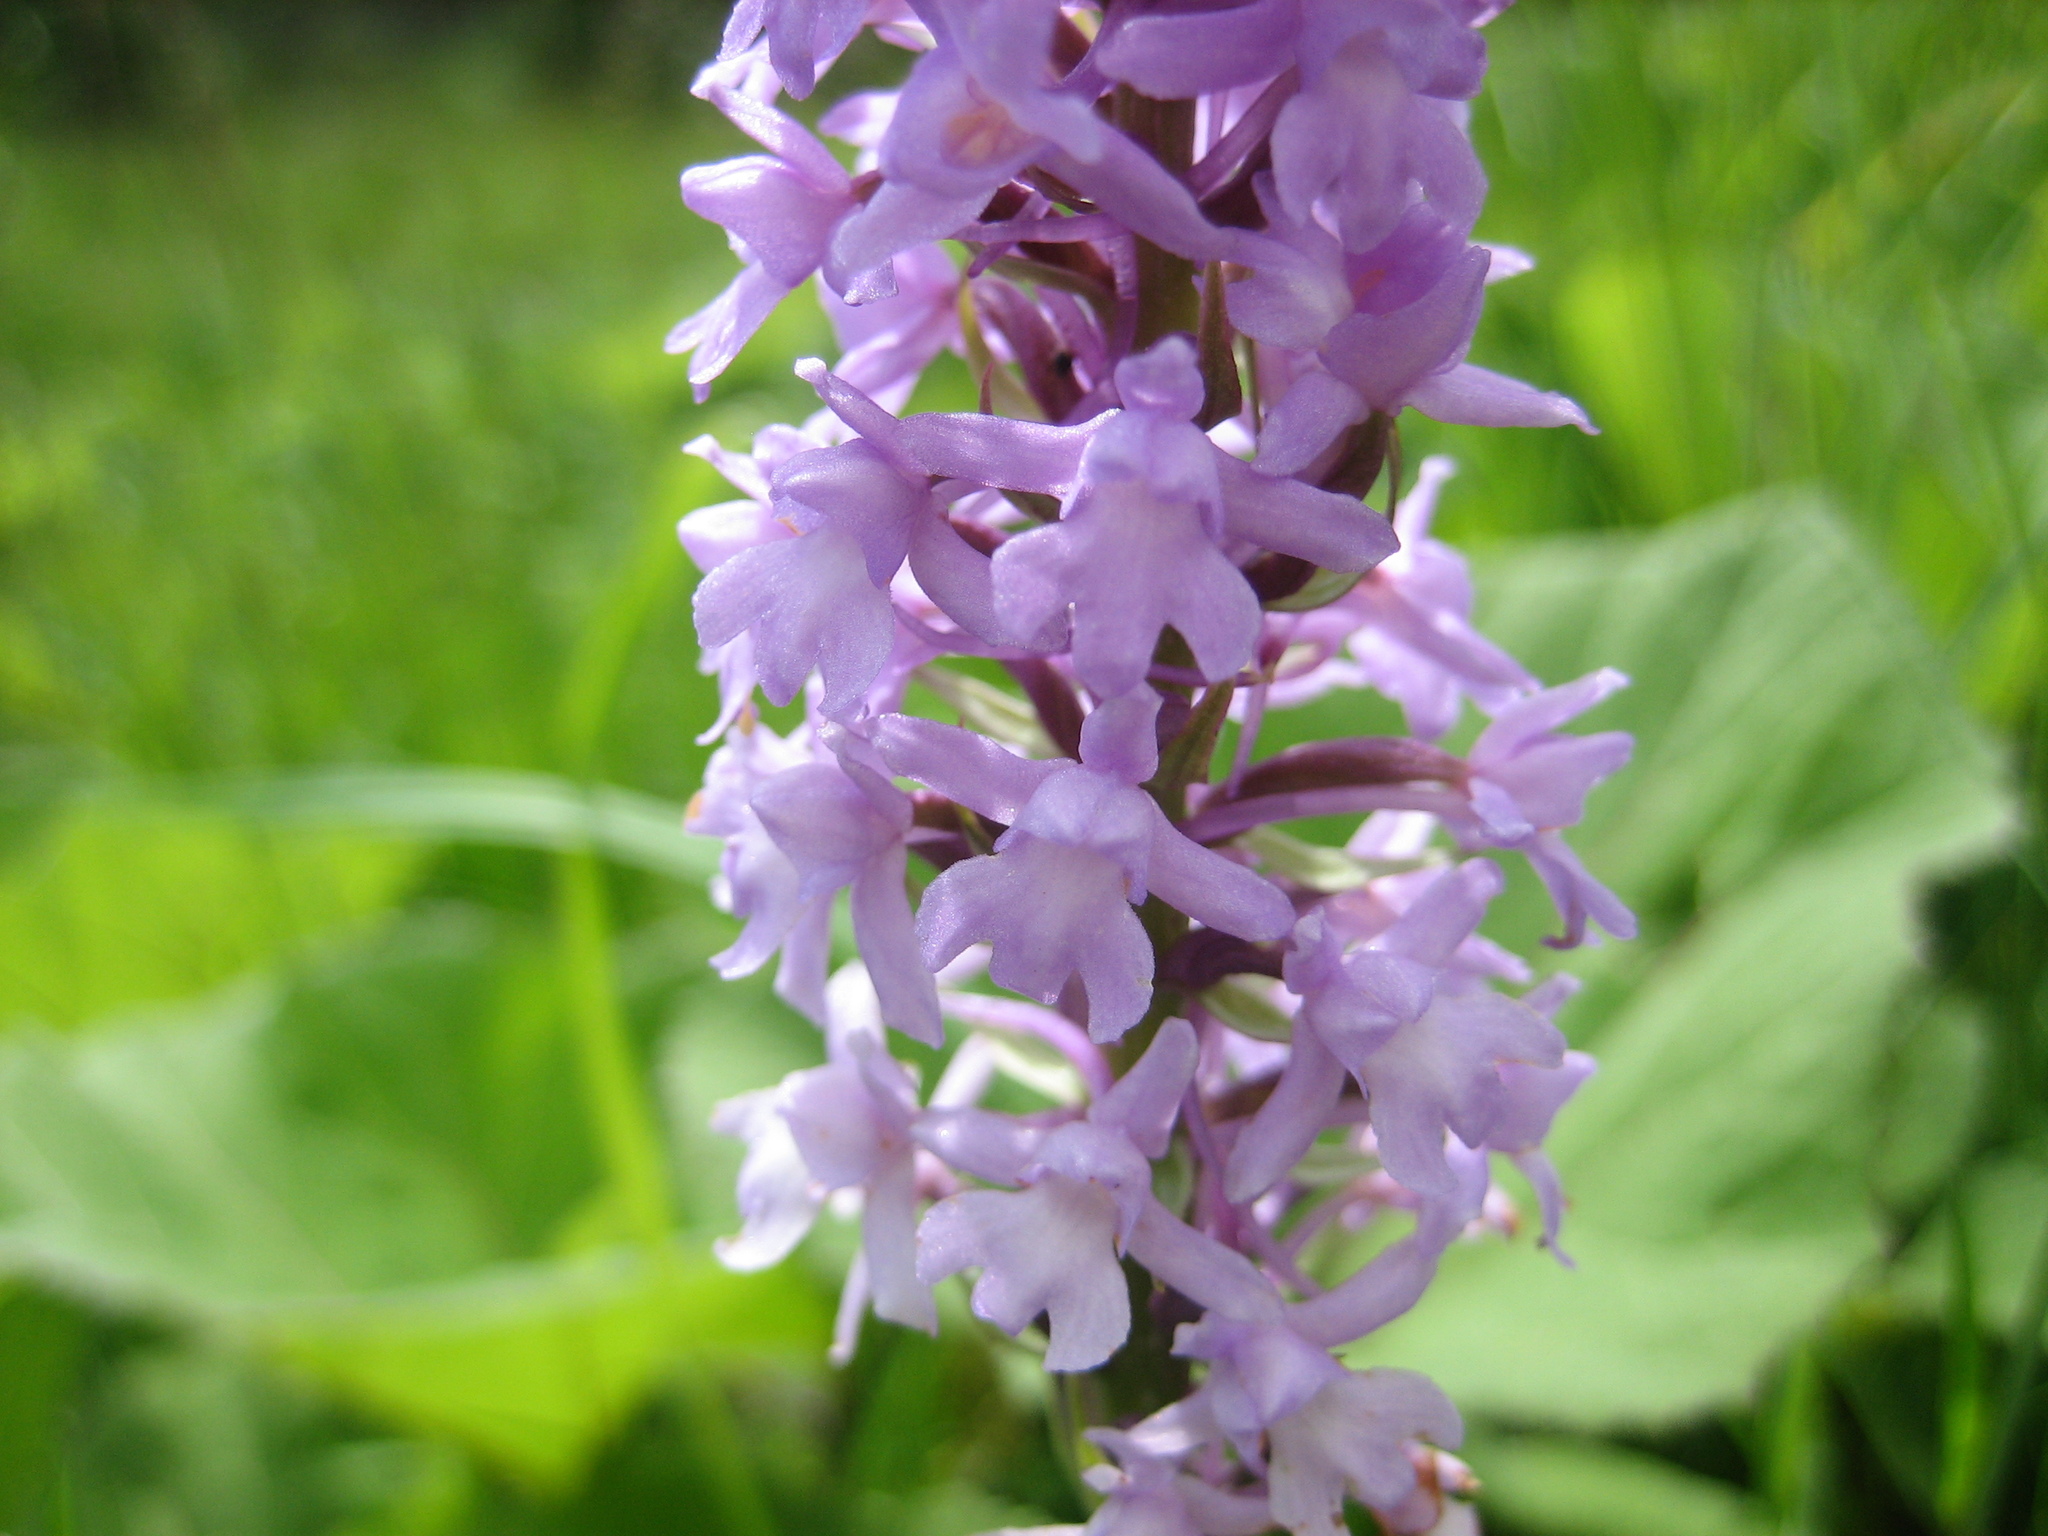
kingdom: Plantae
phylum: Tracheophyta
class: Liliopsida
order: Asparagales
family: Orchidaceae
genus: Gymnadenia
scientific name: Gymnadenia conopsea
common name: Fragrant orchid
